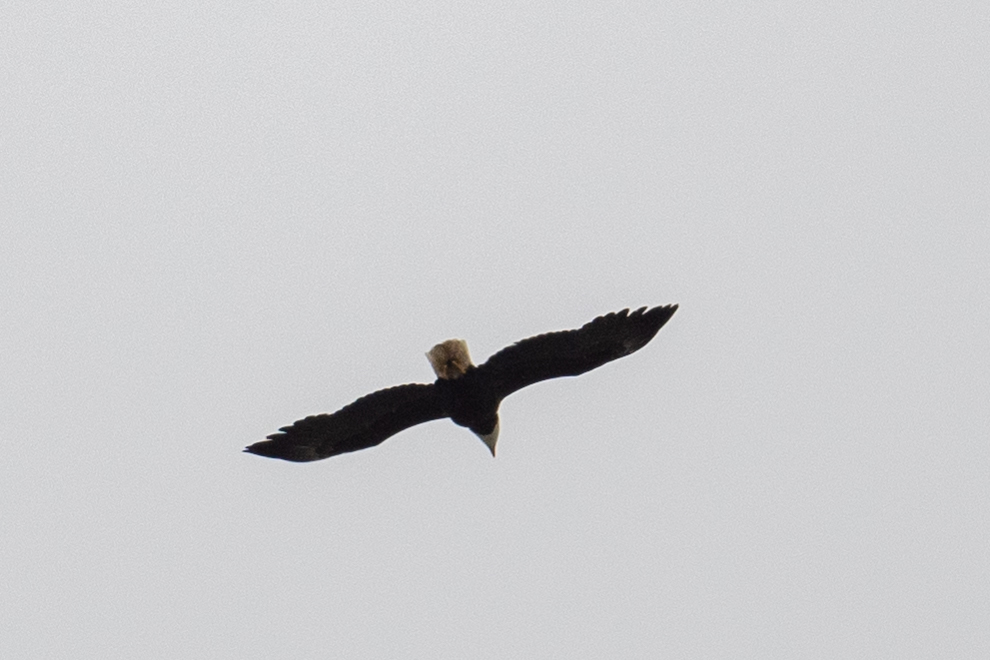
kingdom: Animalia
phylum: Chordata
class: Aves
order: Accipitriformes
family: Accipitridae
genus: Haliaeetus
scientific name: Haliaeetus leucocephalus
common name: Bald eagle
